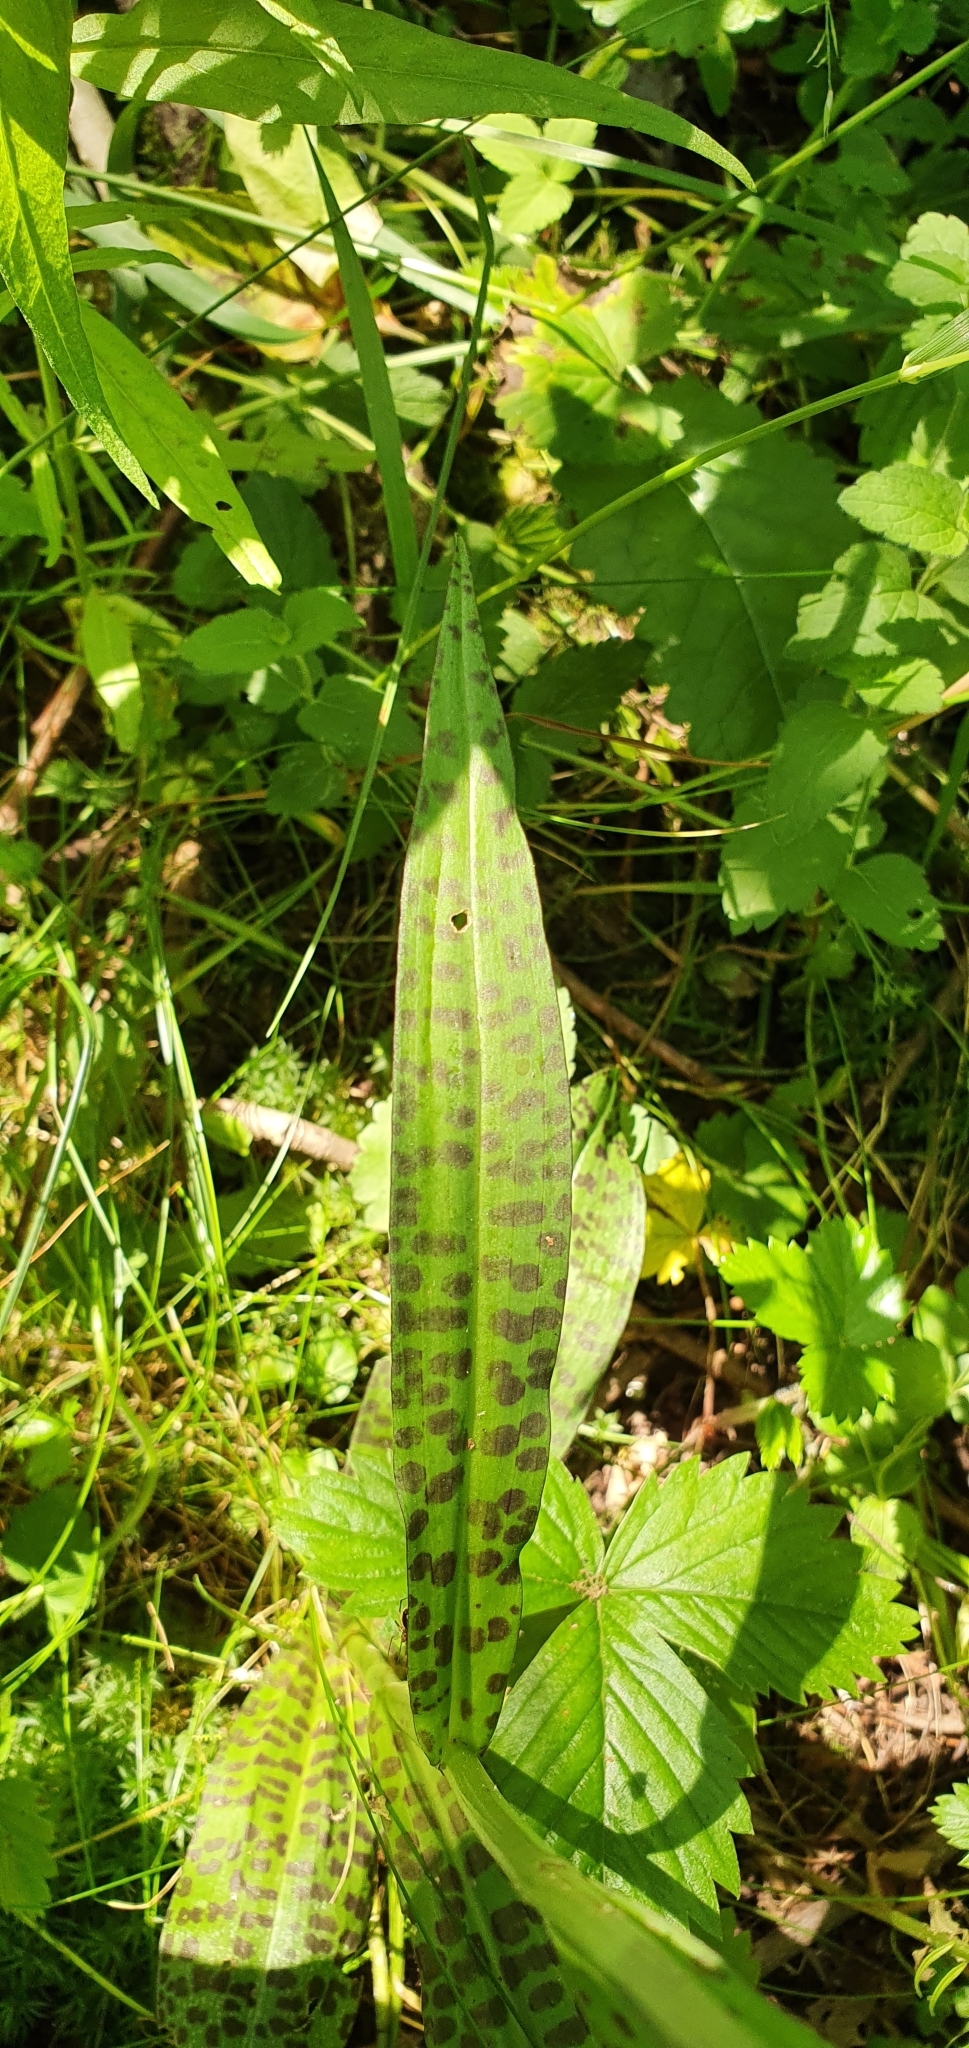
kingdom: Plantae
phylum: Tracheophyta
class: Liliopsida
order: Asparagales
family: Orchidaceae
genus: Dactylorhiza
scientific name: Dactylorhiza maculata
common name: Heath spotted-orchid
